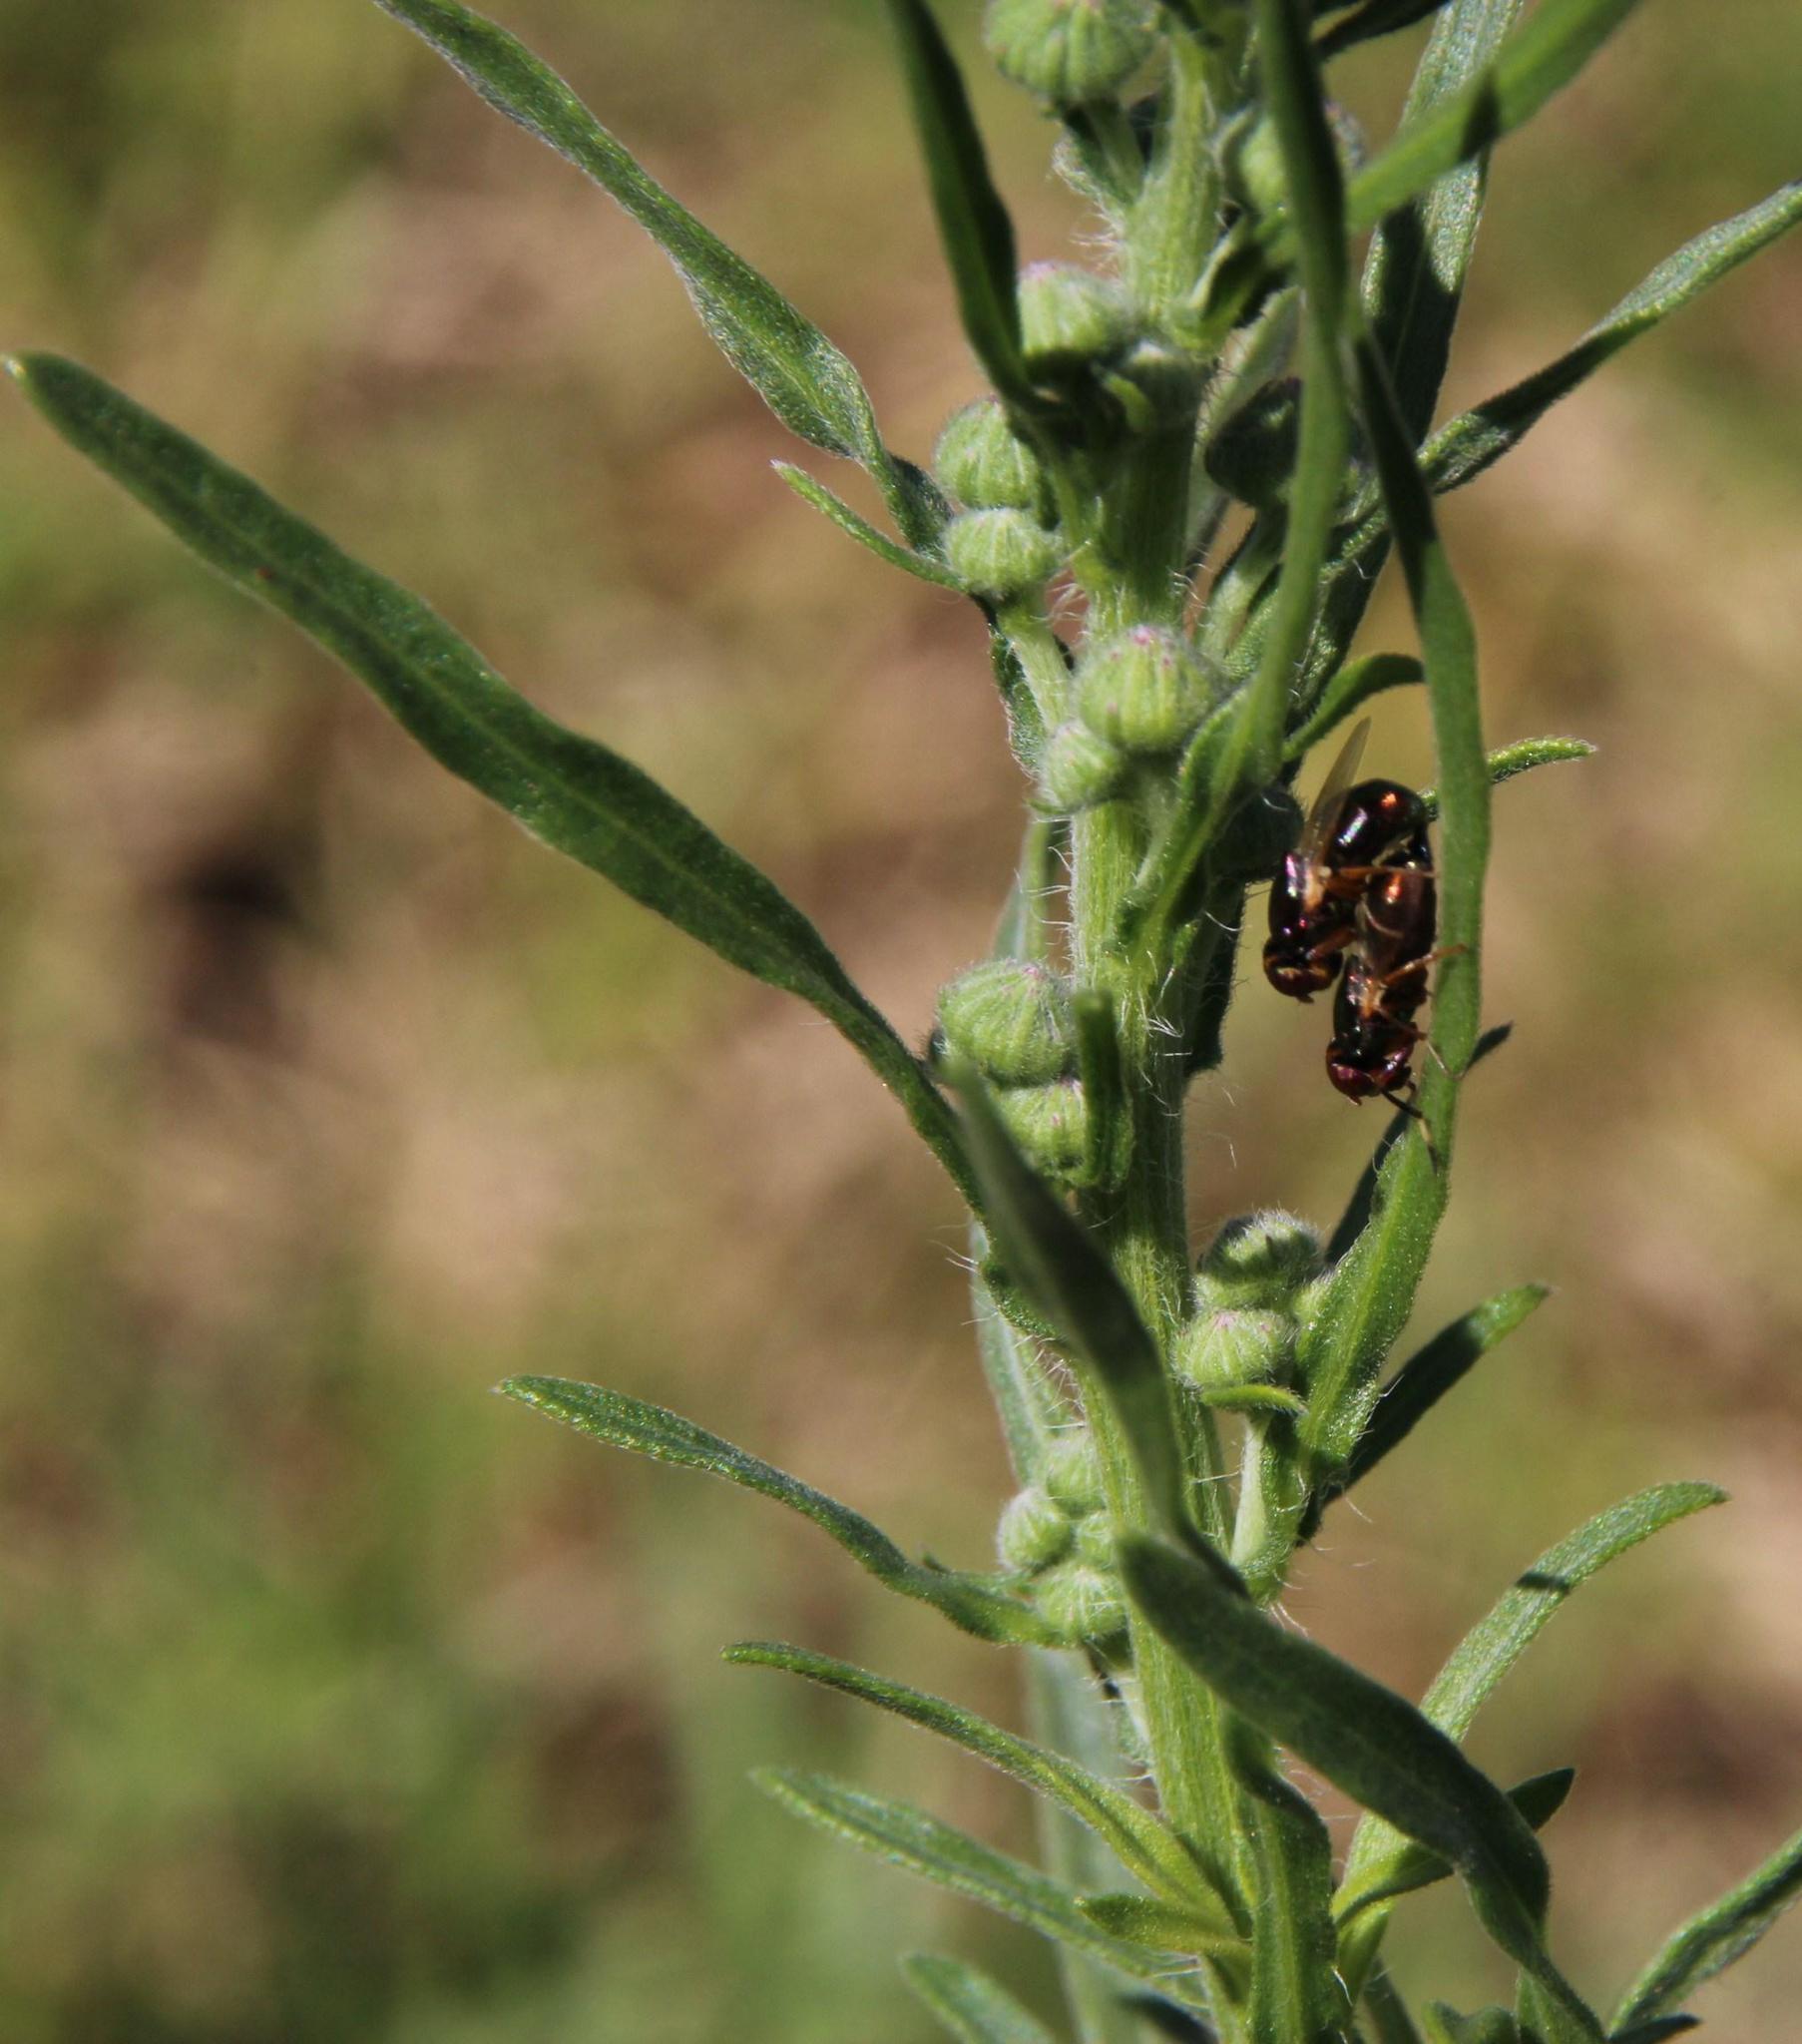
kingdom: Plantae
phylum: Tracheophyta
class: Magnoliopsida
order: Asterales
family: Asteraceae
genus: Erigeron
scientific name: Erigeron bonariensis
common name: Argentine fleabane
